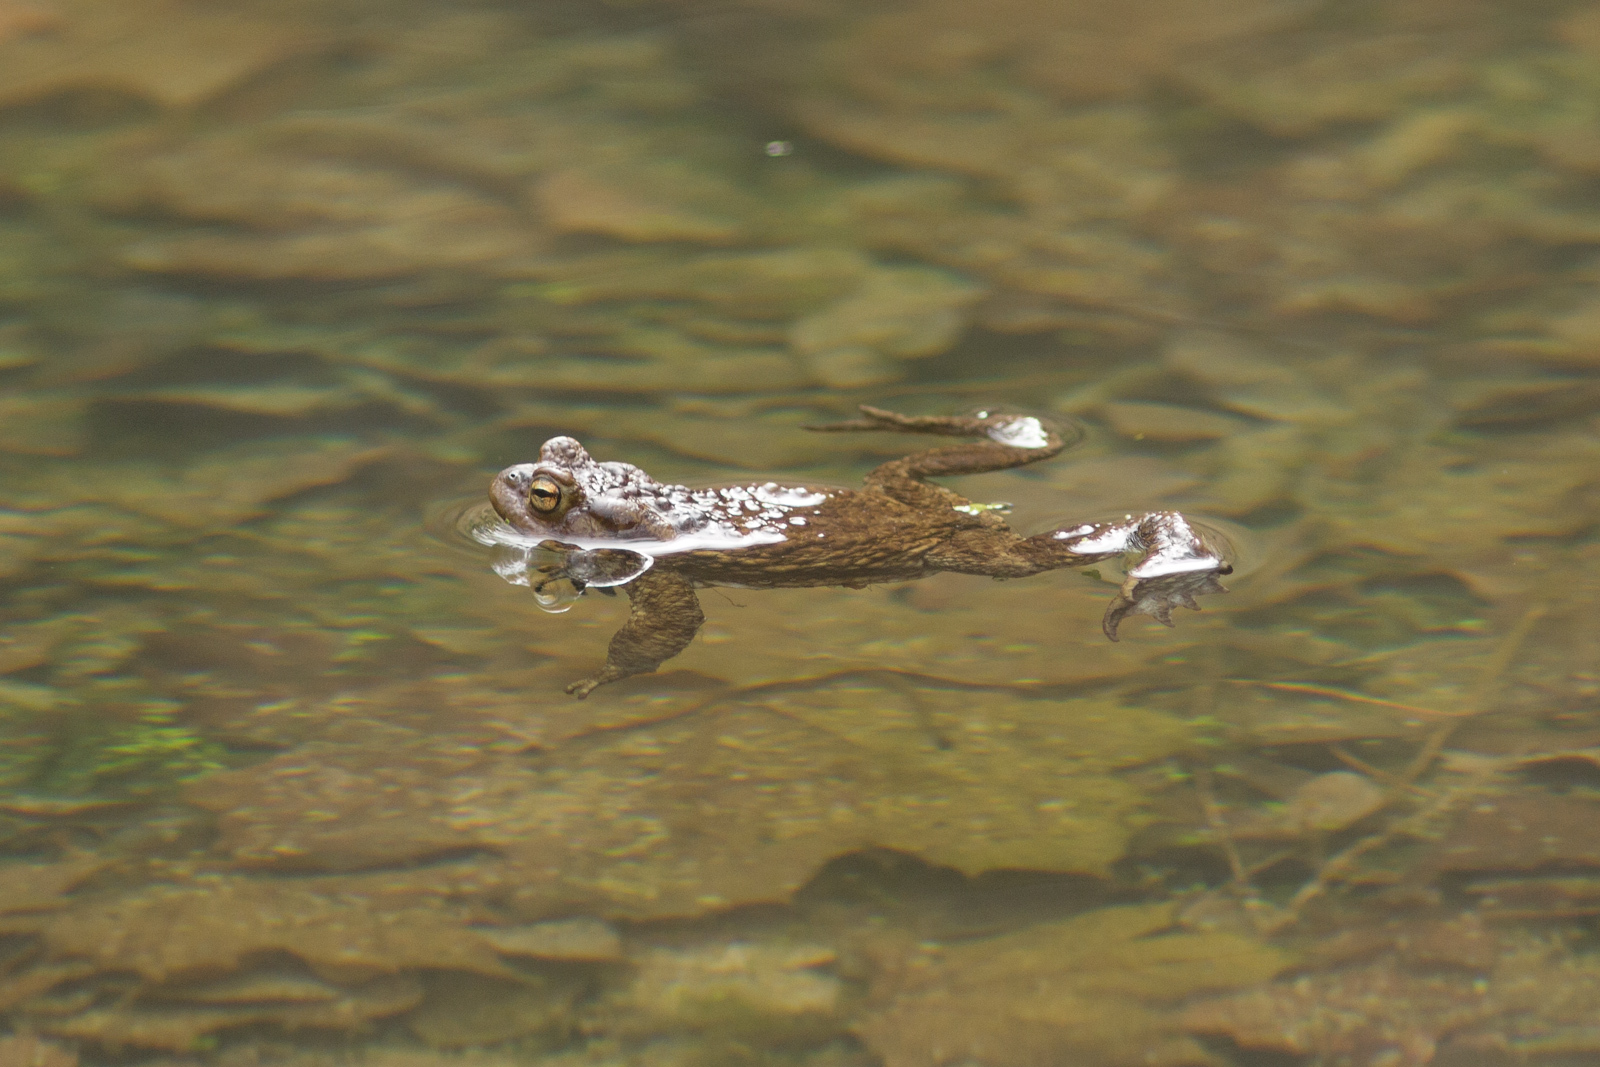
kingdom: Animalia
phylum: Chordata
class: Amphibia
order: Anura
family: Bufonidae
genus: Bufo
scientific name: Bufo bufo
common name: Common toad
